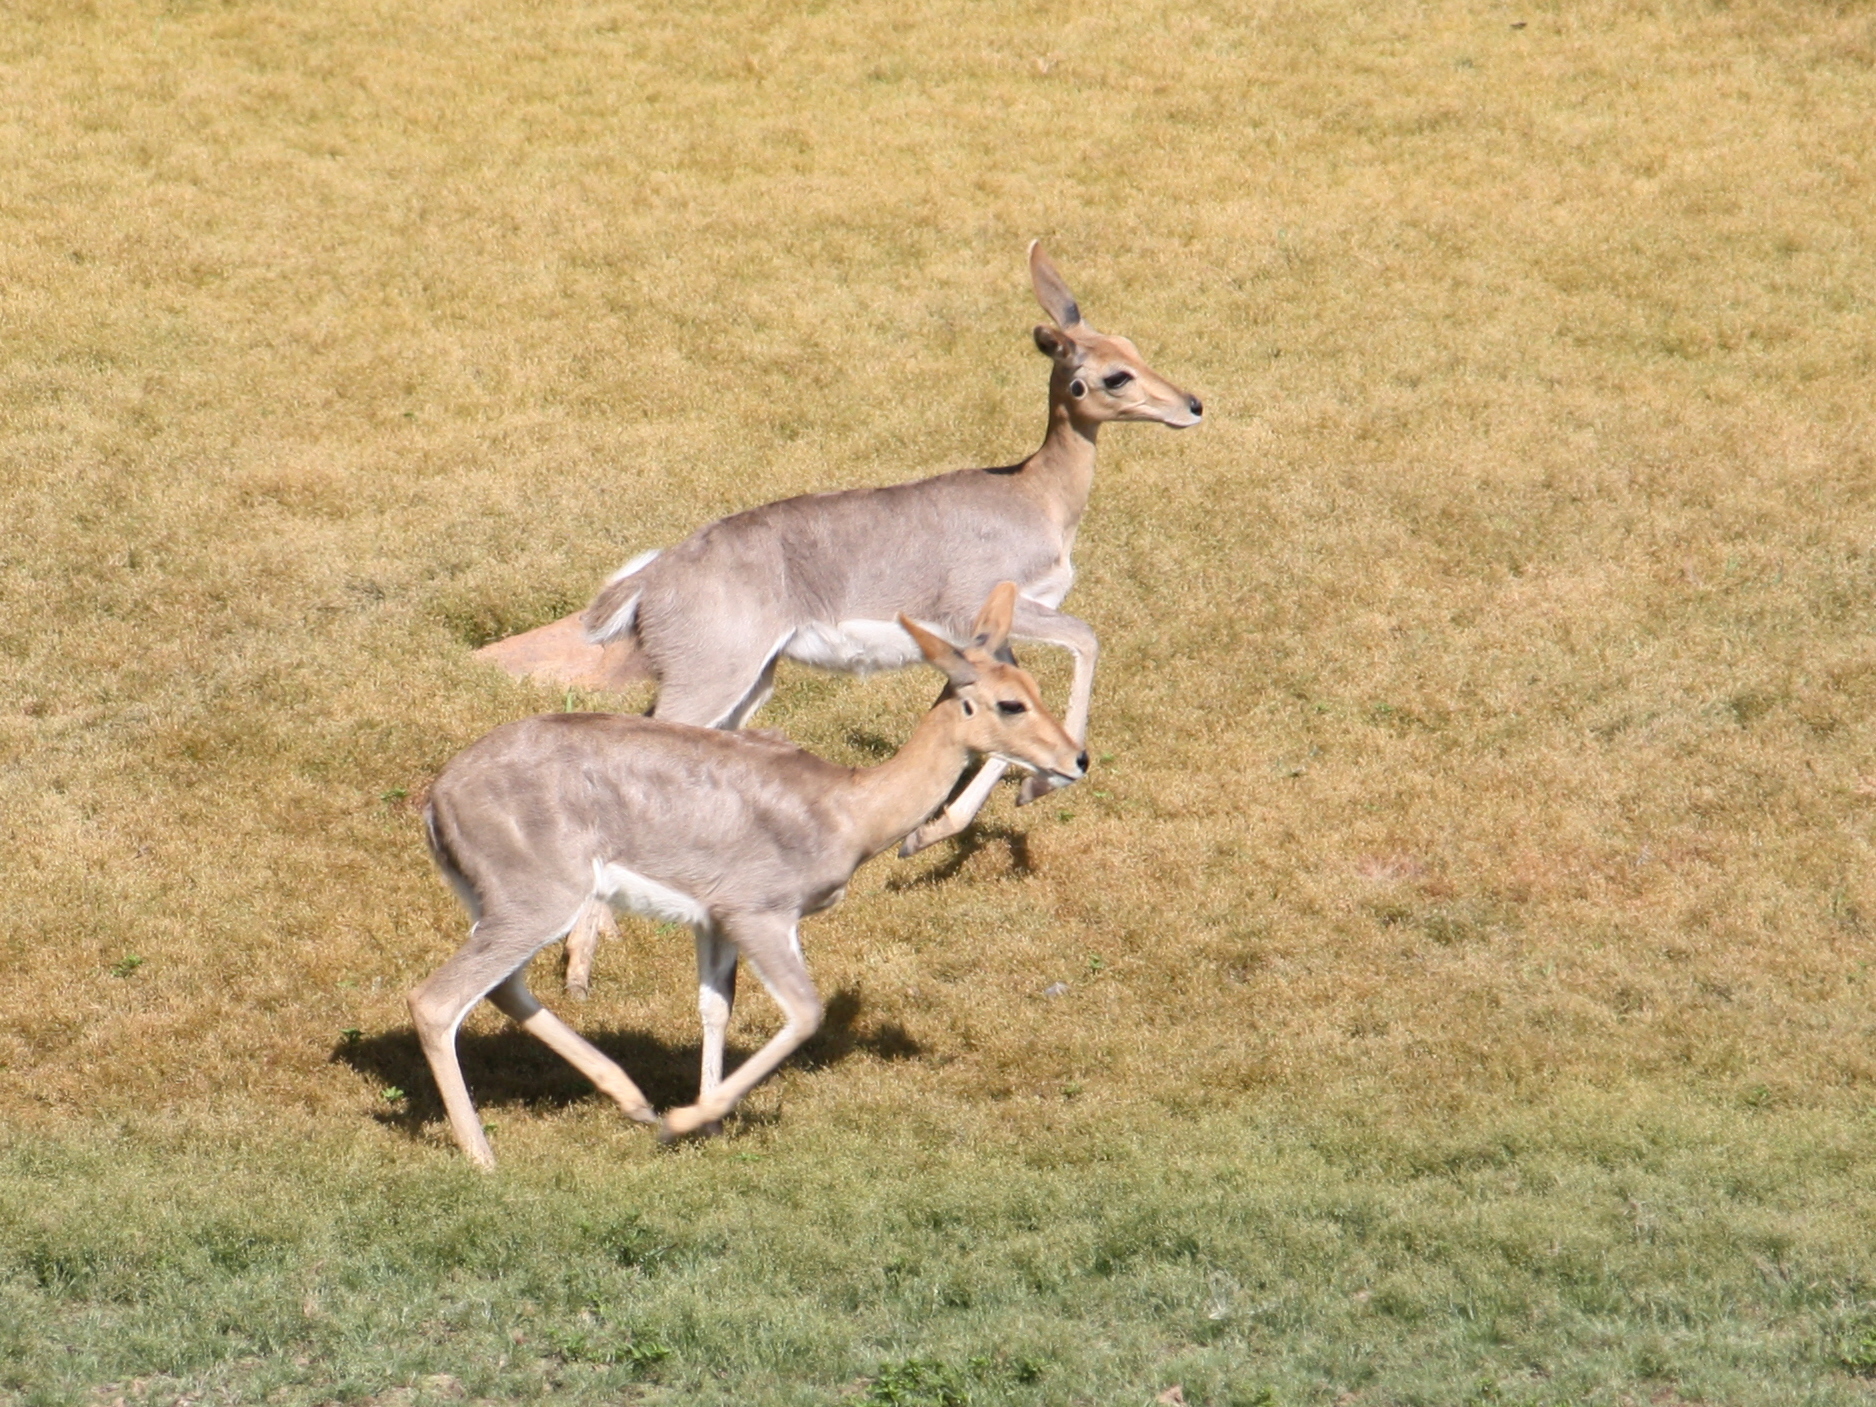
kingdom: Animalia
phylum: Chordata
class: Mammalia
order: Artiodactyla
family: Bovidae
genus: Redunca
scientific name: Redunca fulvorufula
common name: Mountain reedbuck
